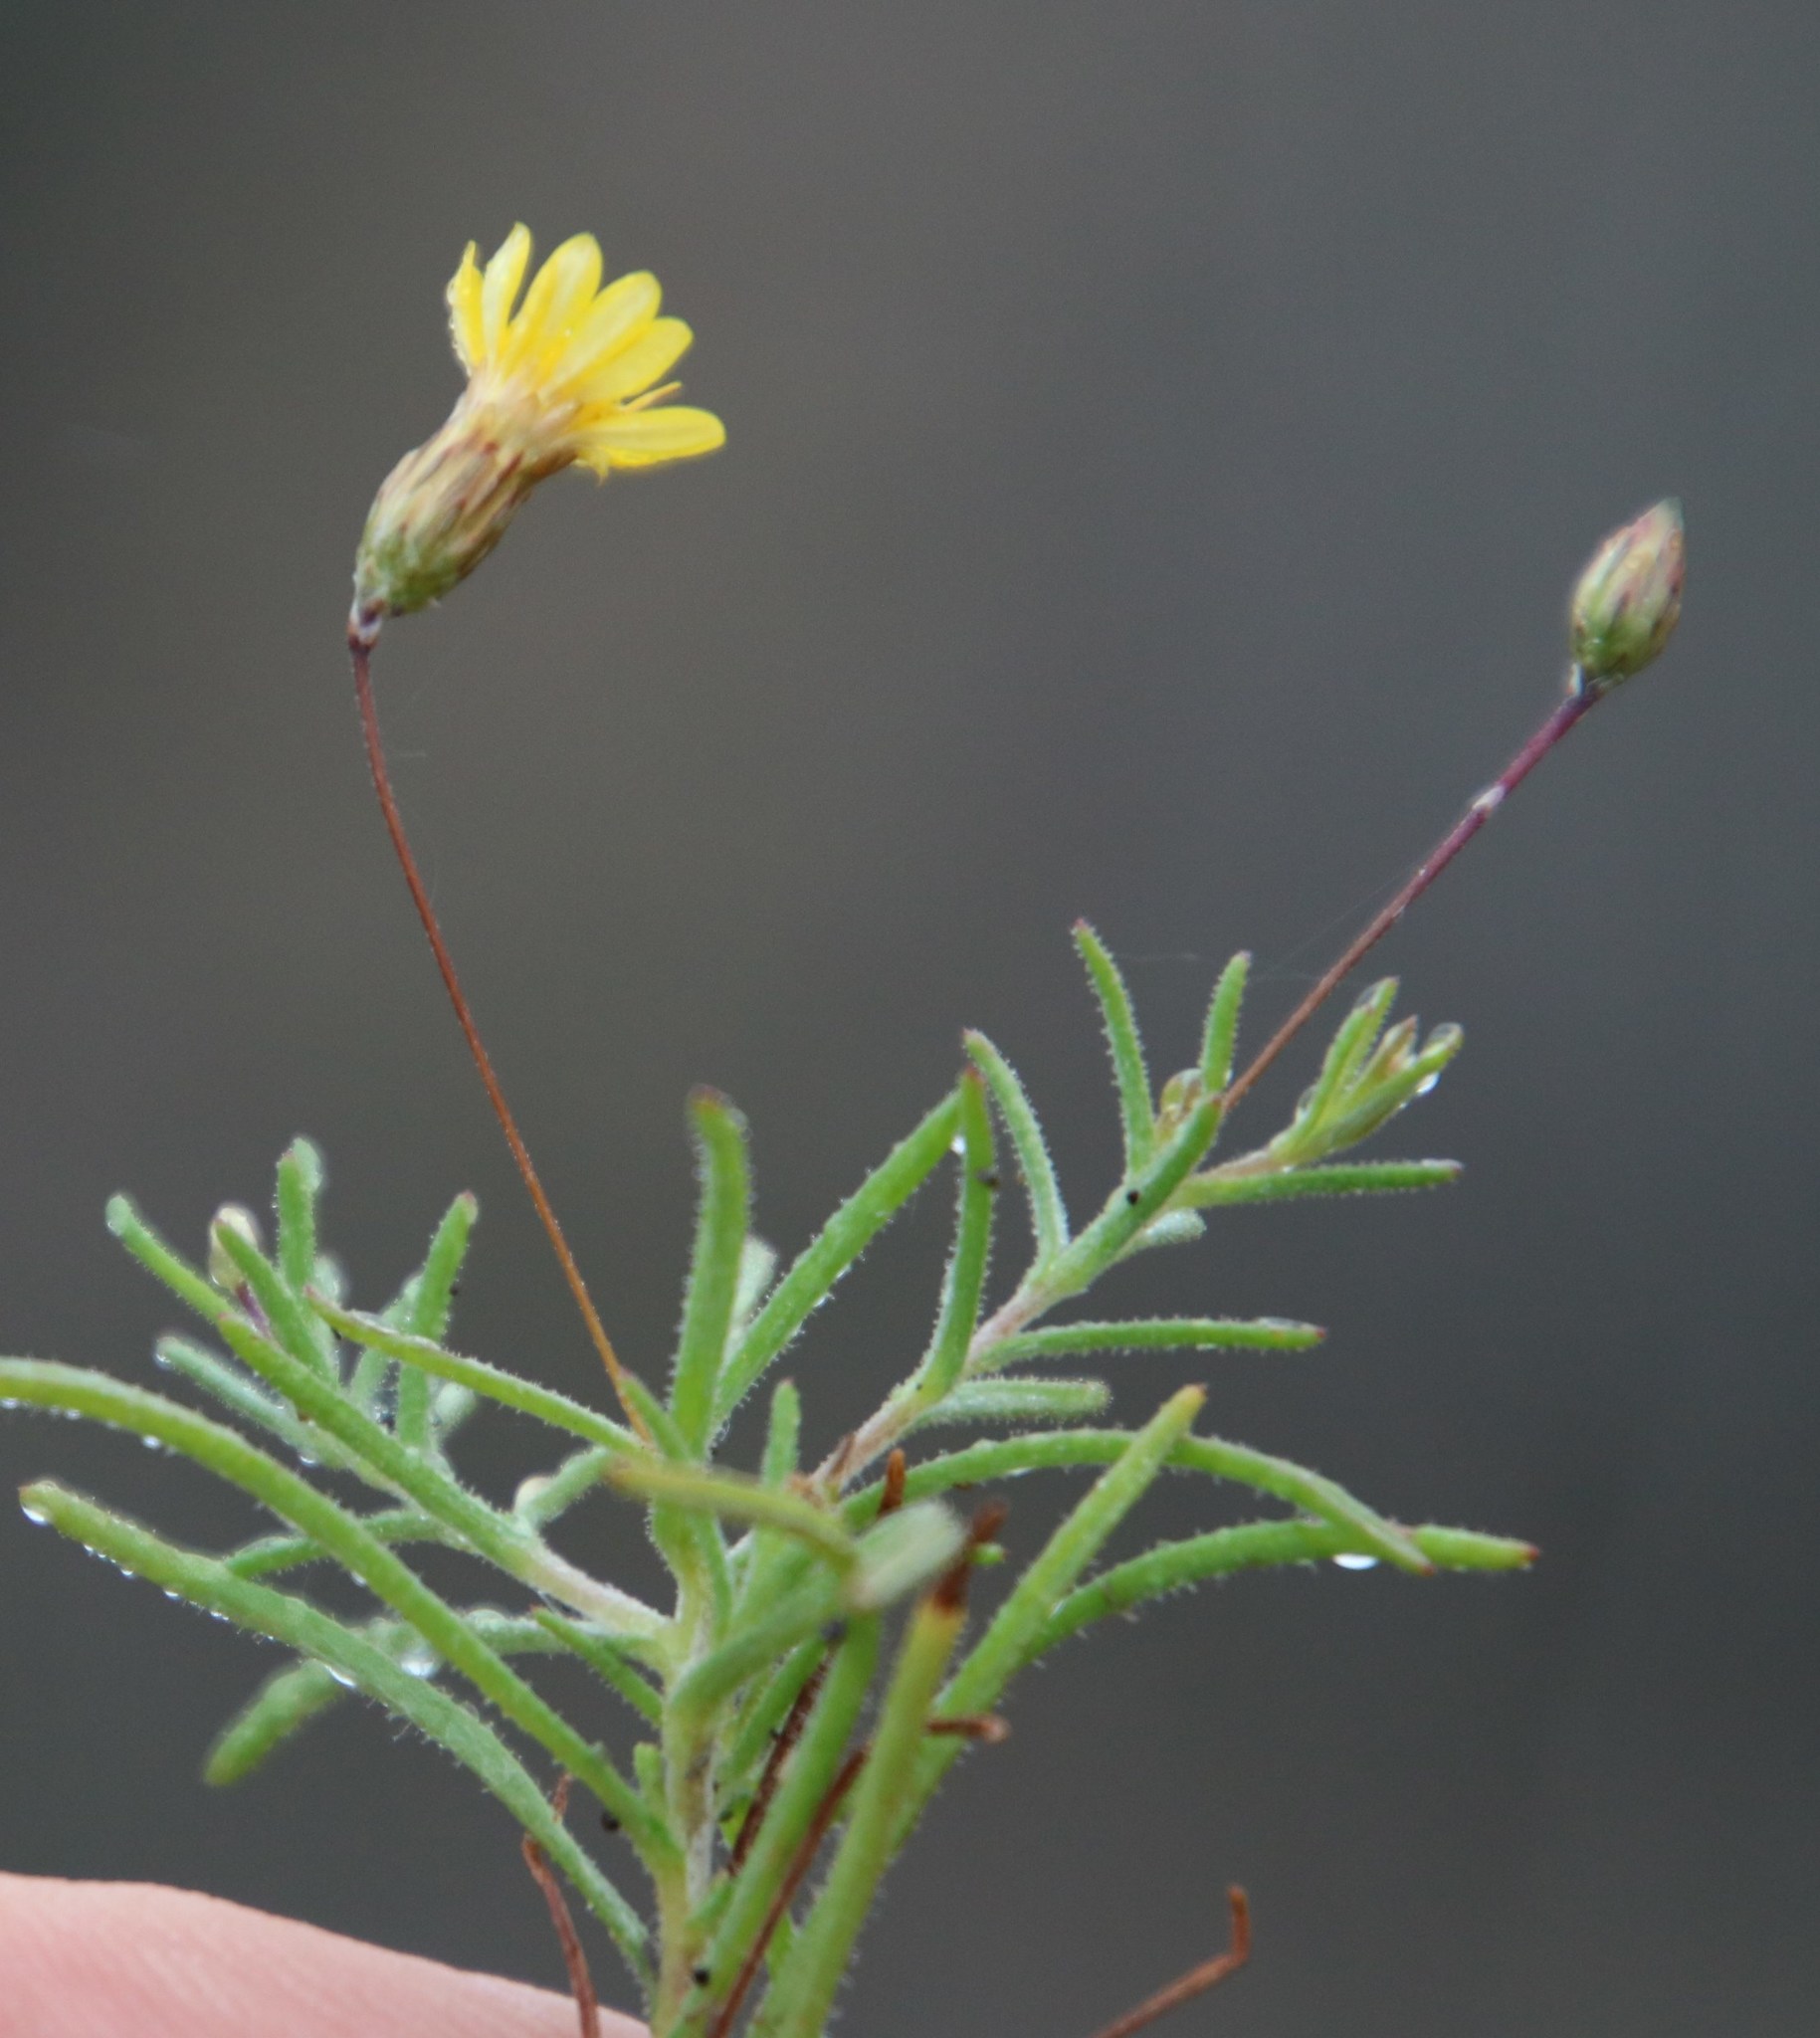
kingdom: Plantae
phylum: Tracheophyta
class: Magnoliopsida
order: Asterales
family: Asteraceae
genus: Leysera
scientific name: Leysera gnaphalodes
